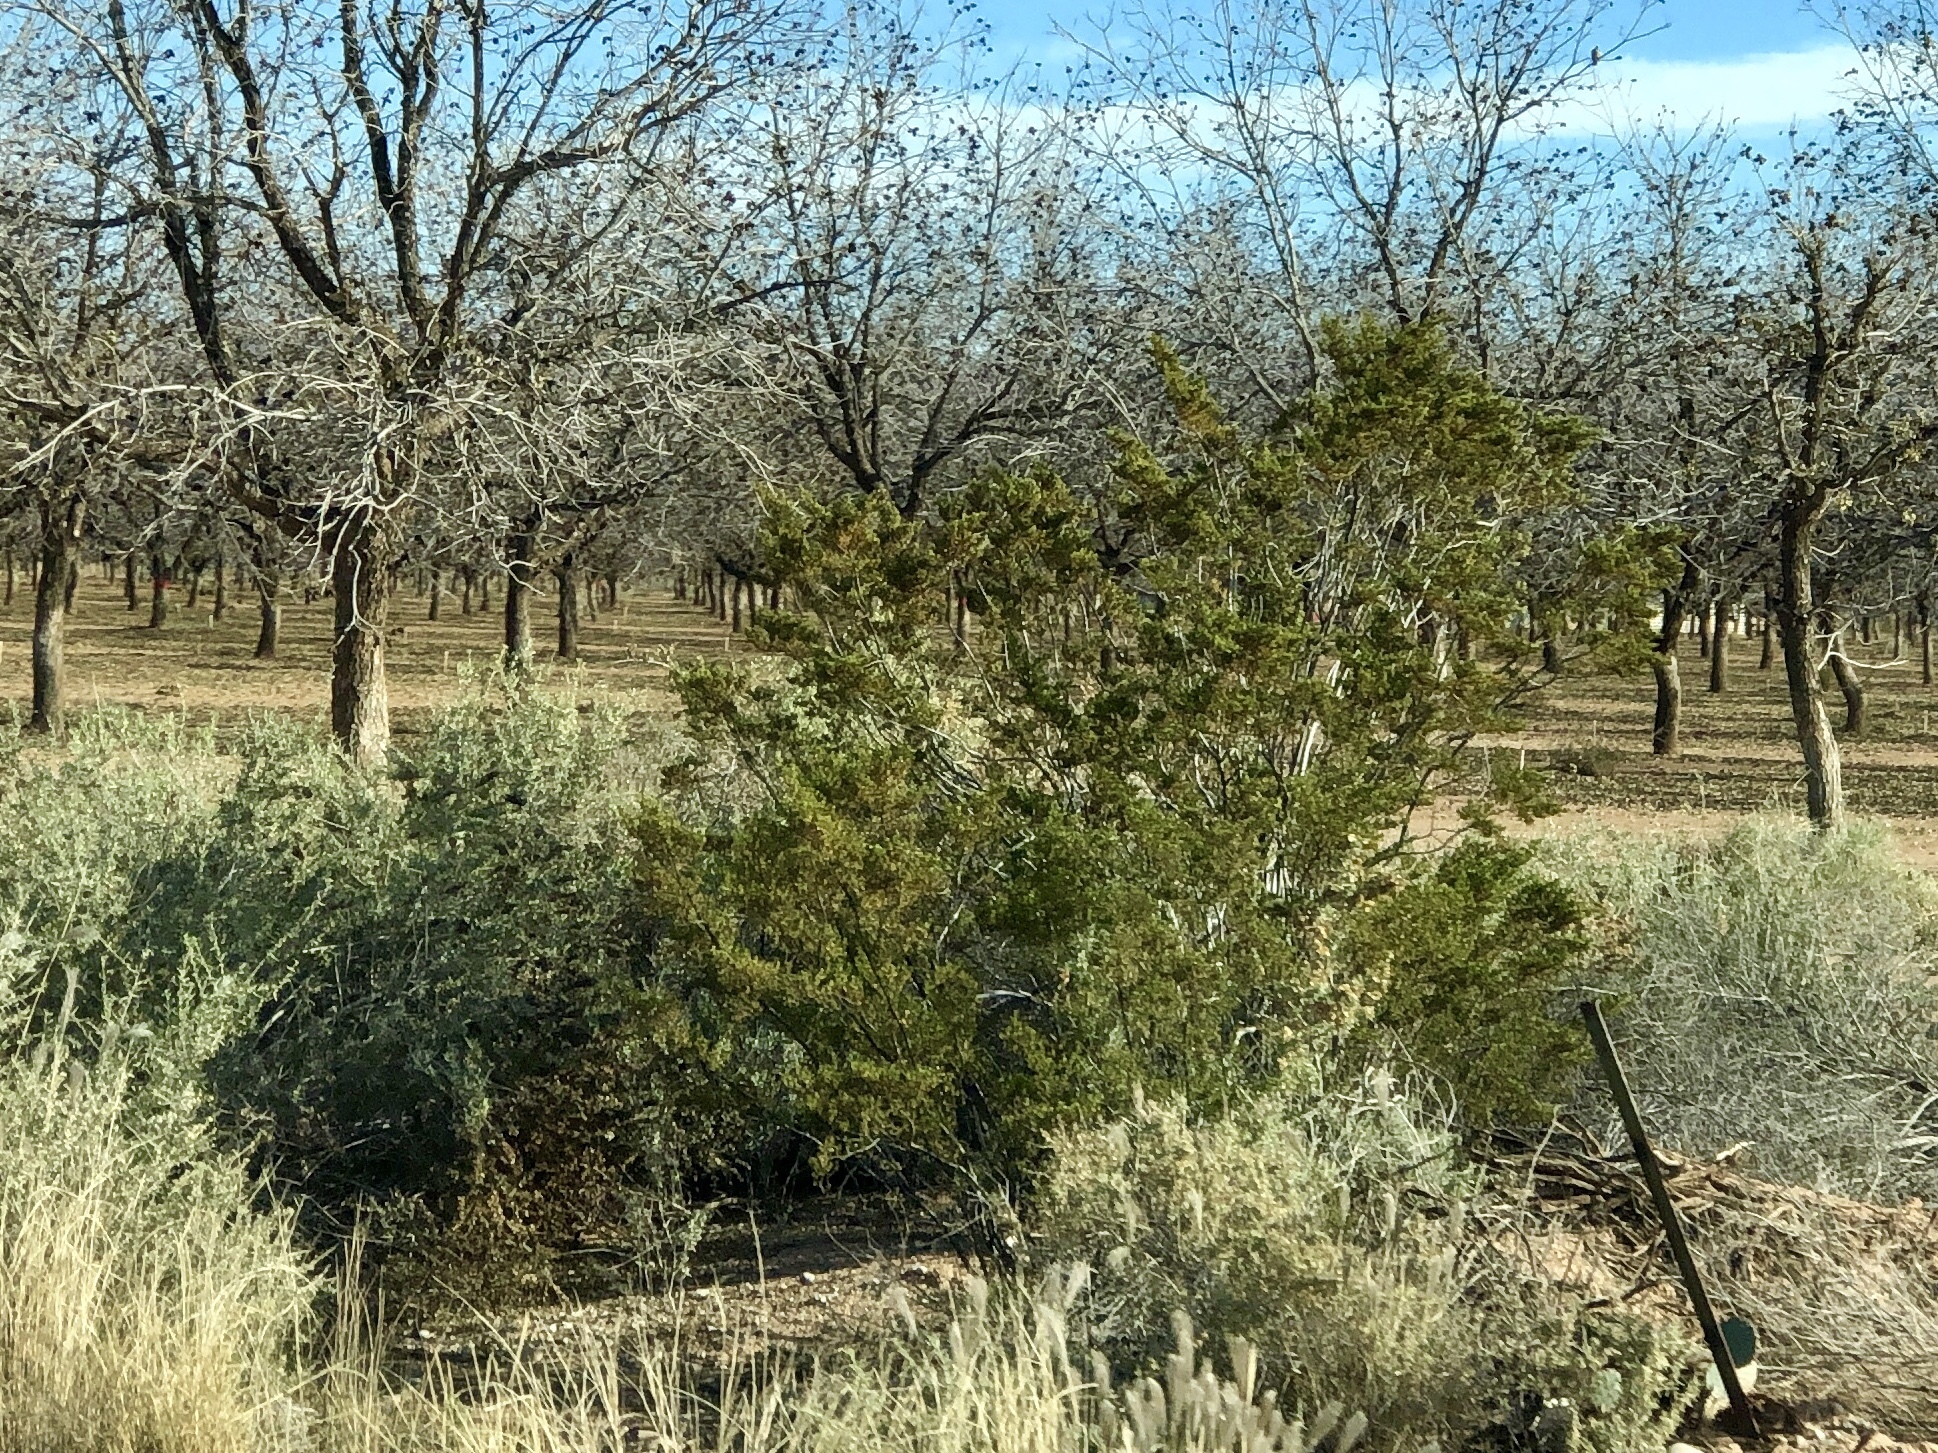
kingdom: Plantae
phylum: Tracheophyta
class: Magnoliopsida
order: Zygophyllales
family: Zygophyllaceae
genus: Larrea
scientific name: Larrea tridentata
